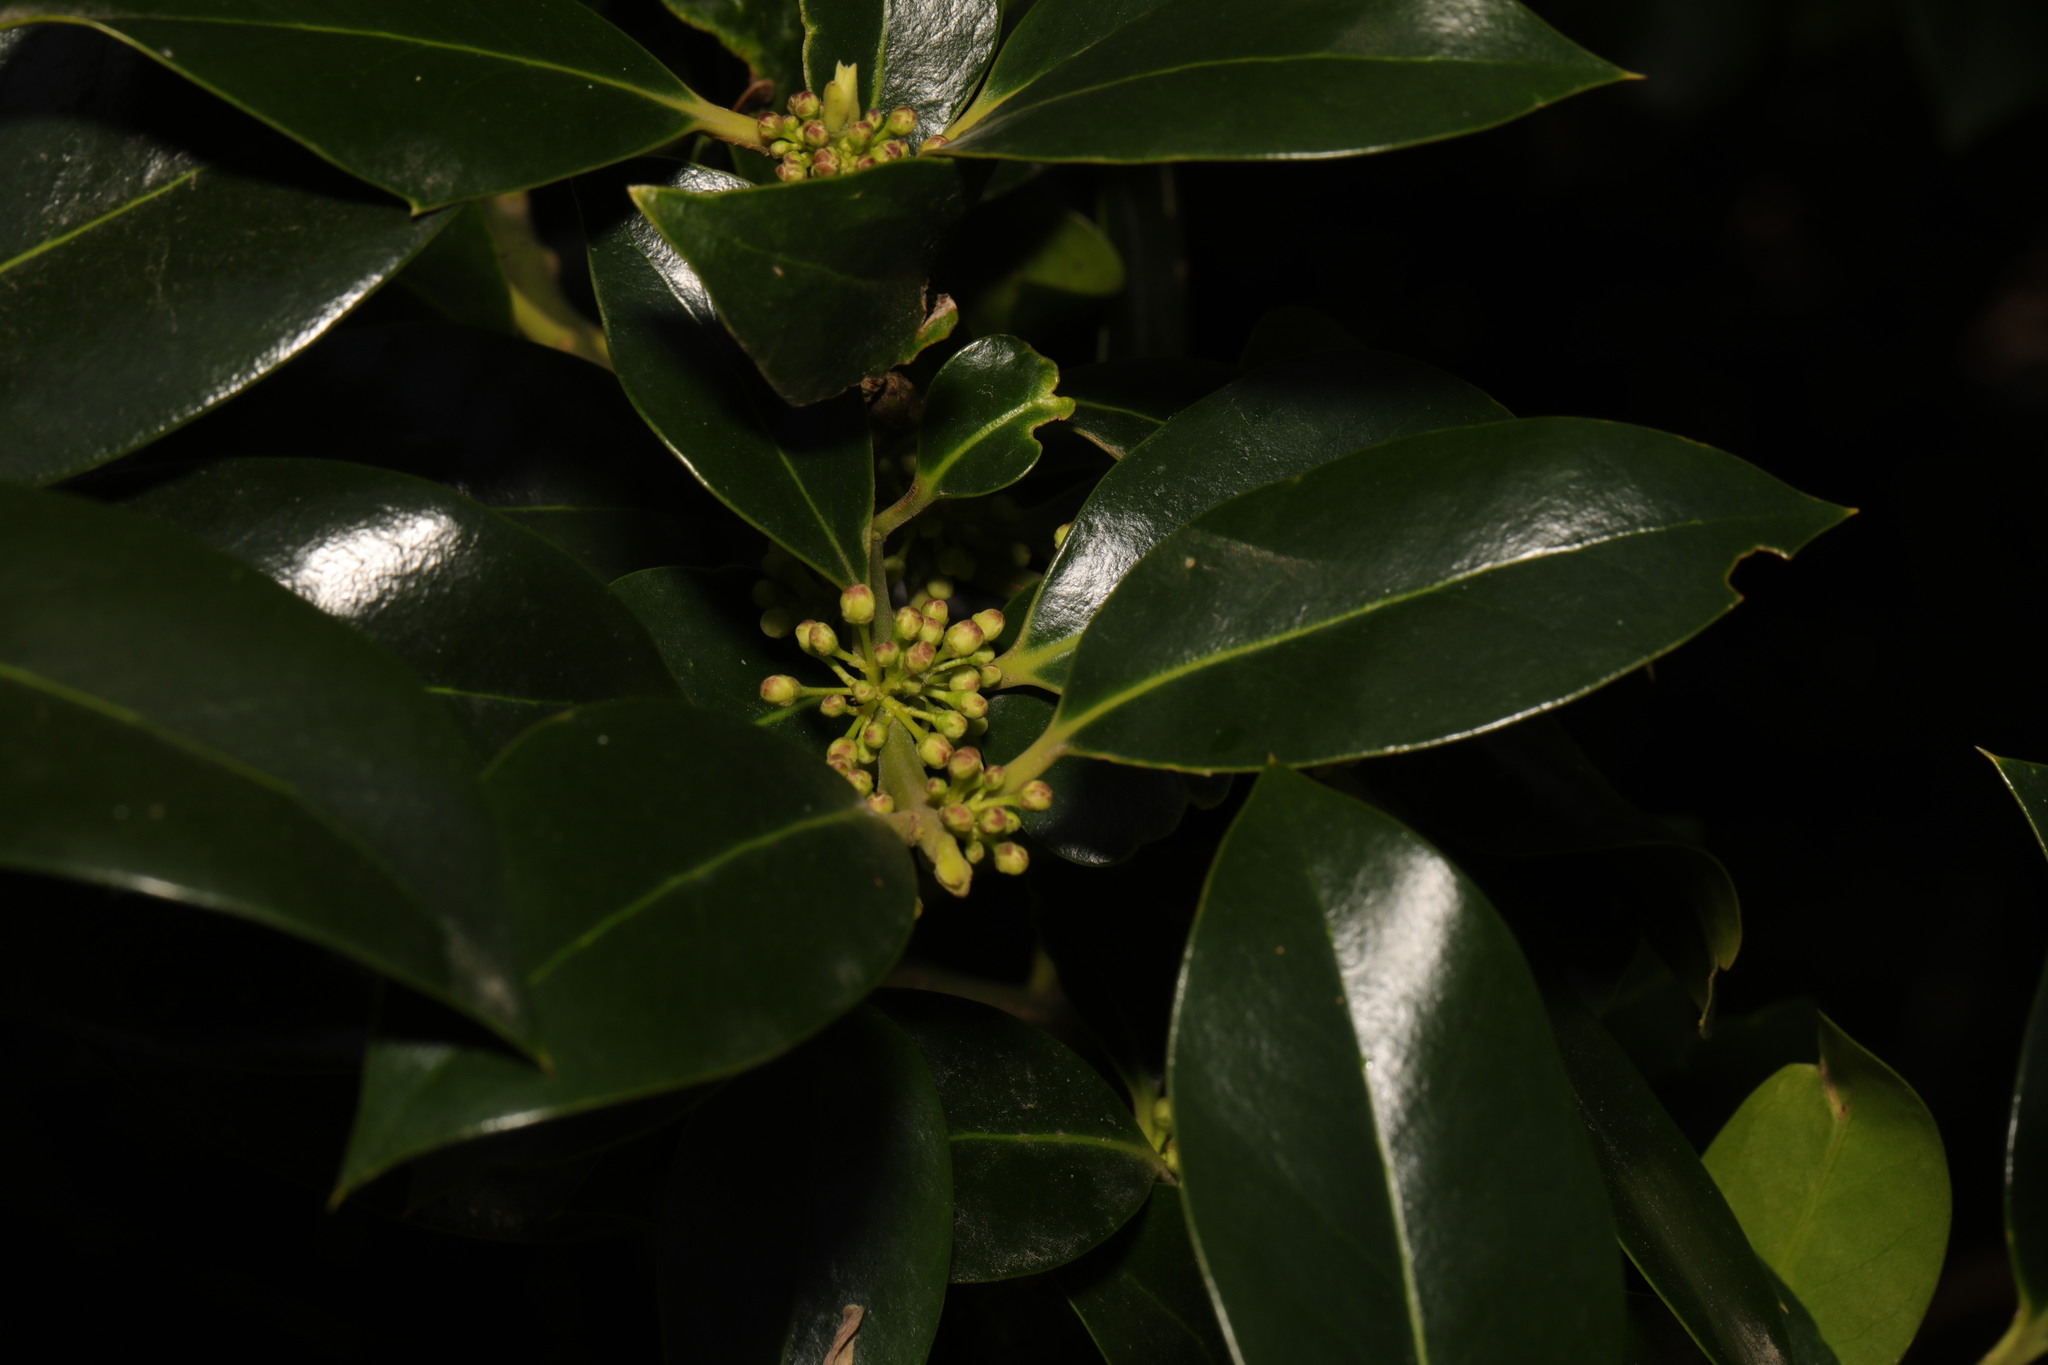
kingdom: Plantae
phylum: Tracheophyta
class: Magnoliopsida
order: Aquifoliales
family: Aquifoliaceae
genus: Ilex
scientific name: Ilex altaclerensis
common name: Highclere holly
